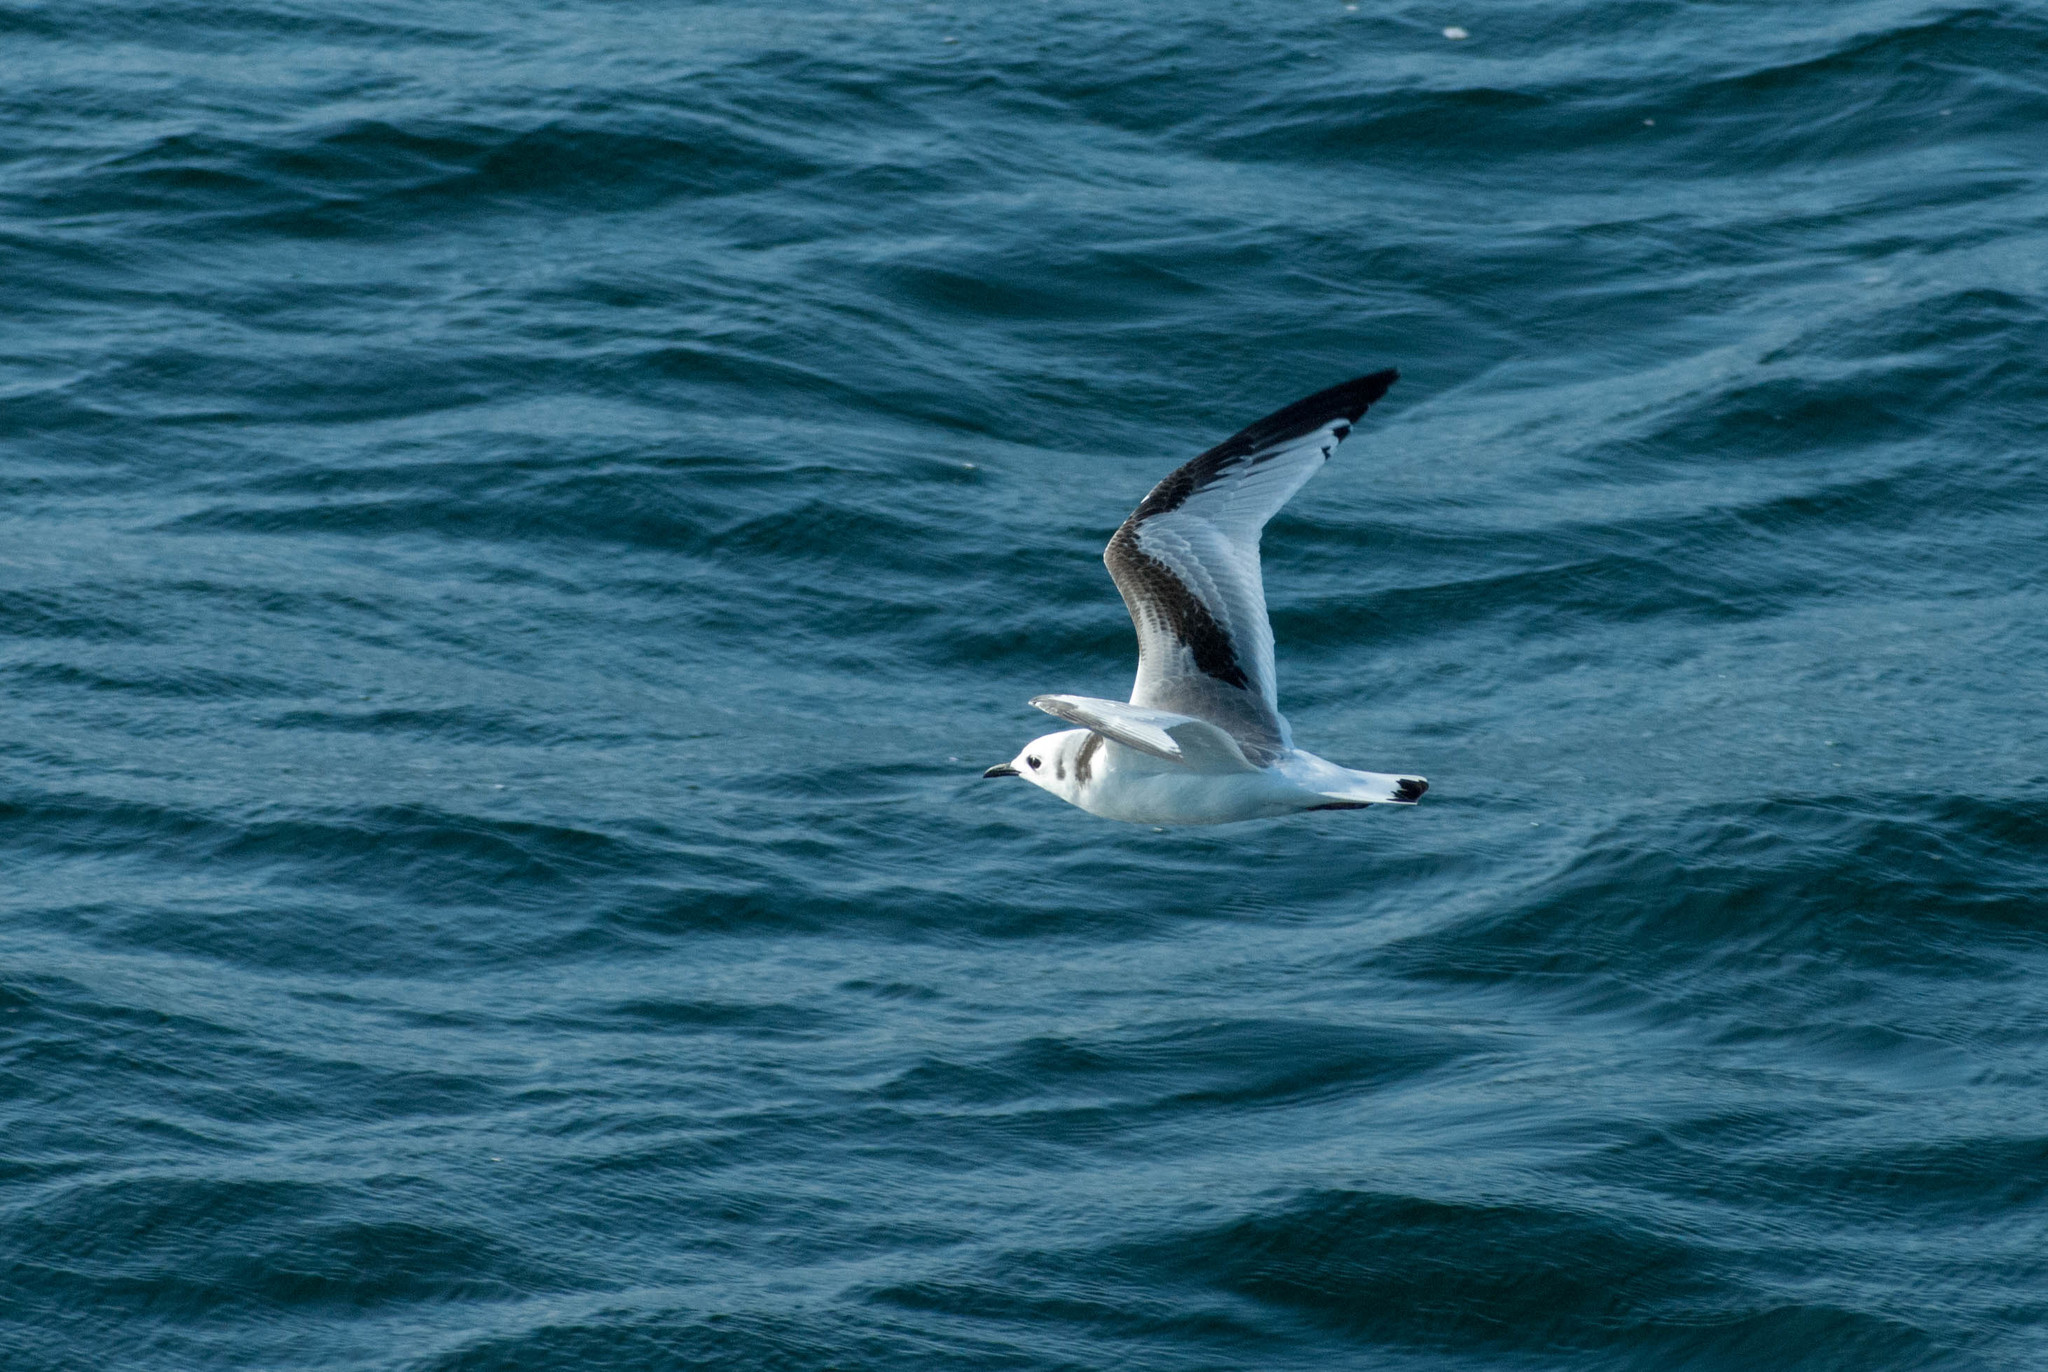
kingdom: Animalia
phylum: Chordata
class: Aves
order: Charadriiformes
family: Laridae
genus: Rissa
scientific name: Rissa tridactyla
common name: Black-legged kittiwake
